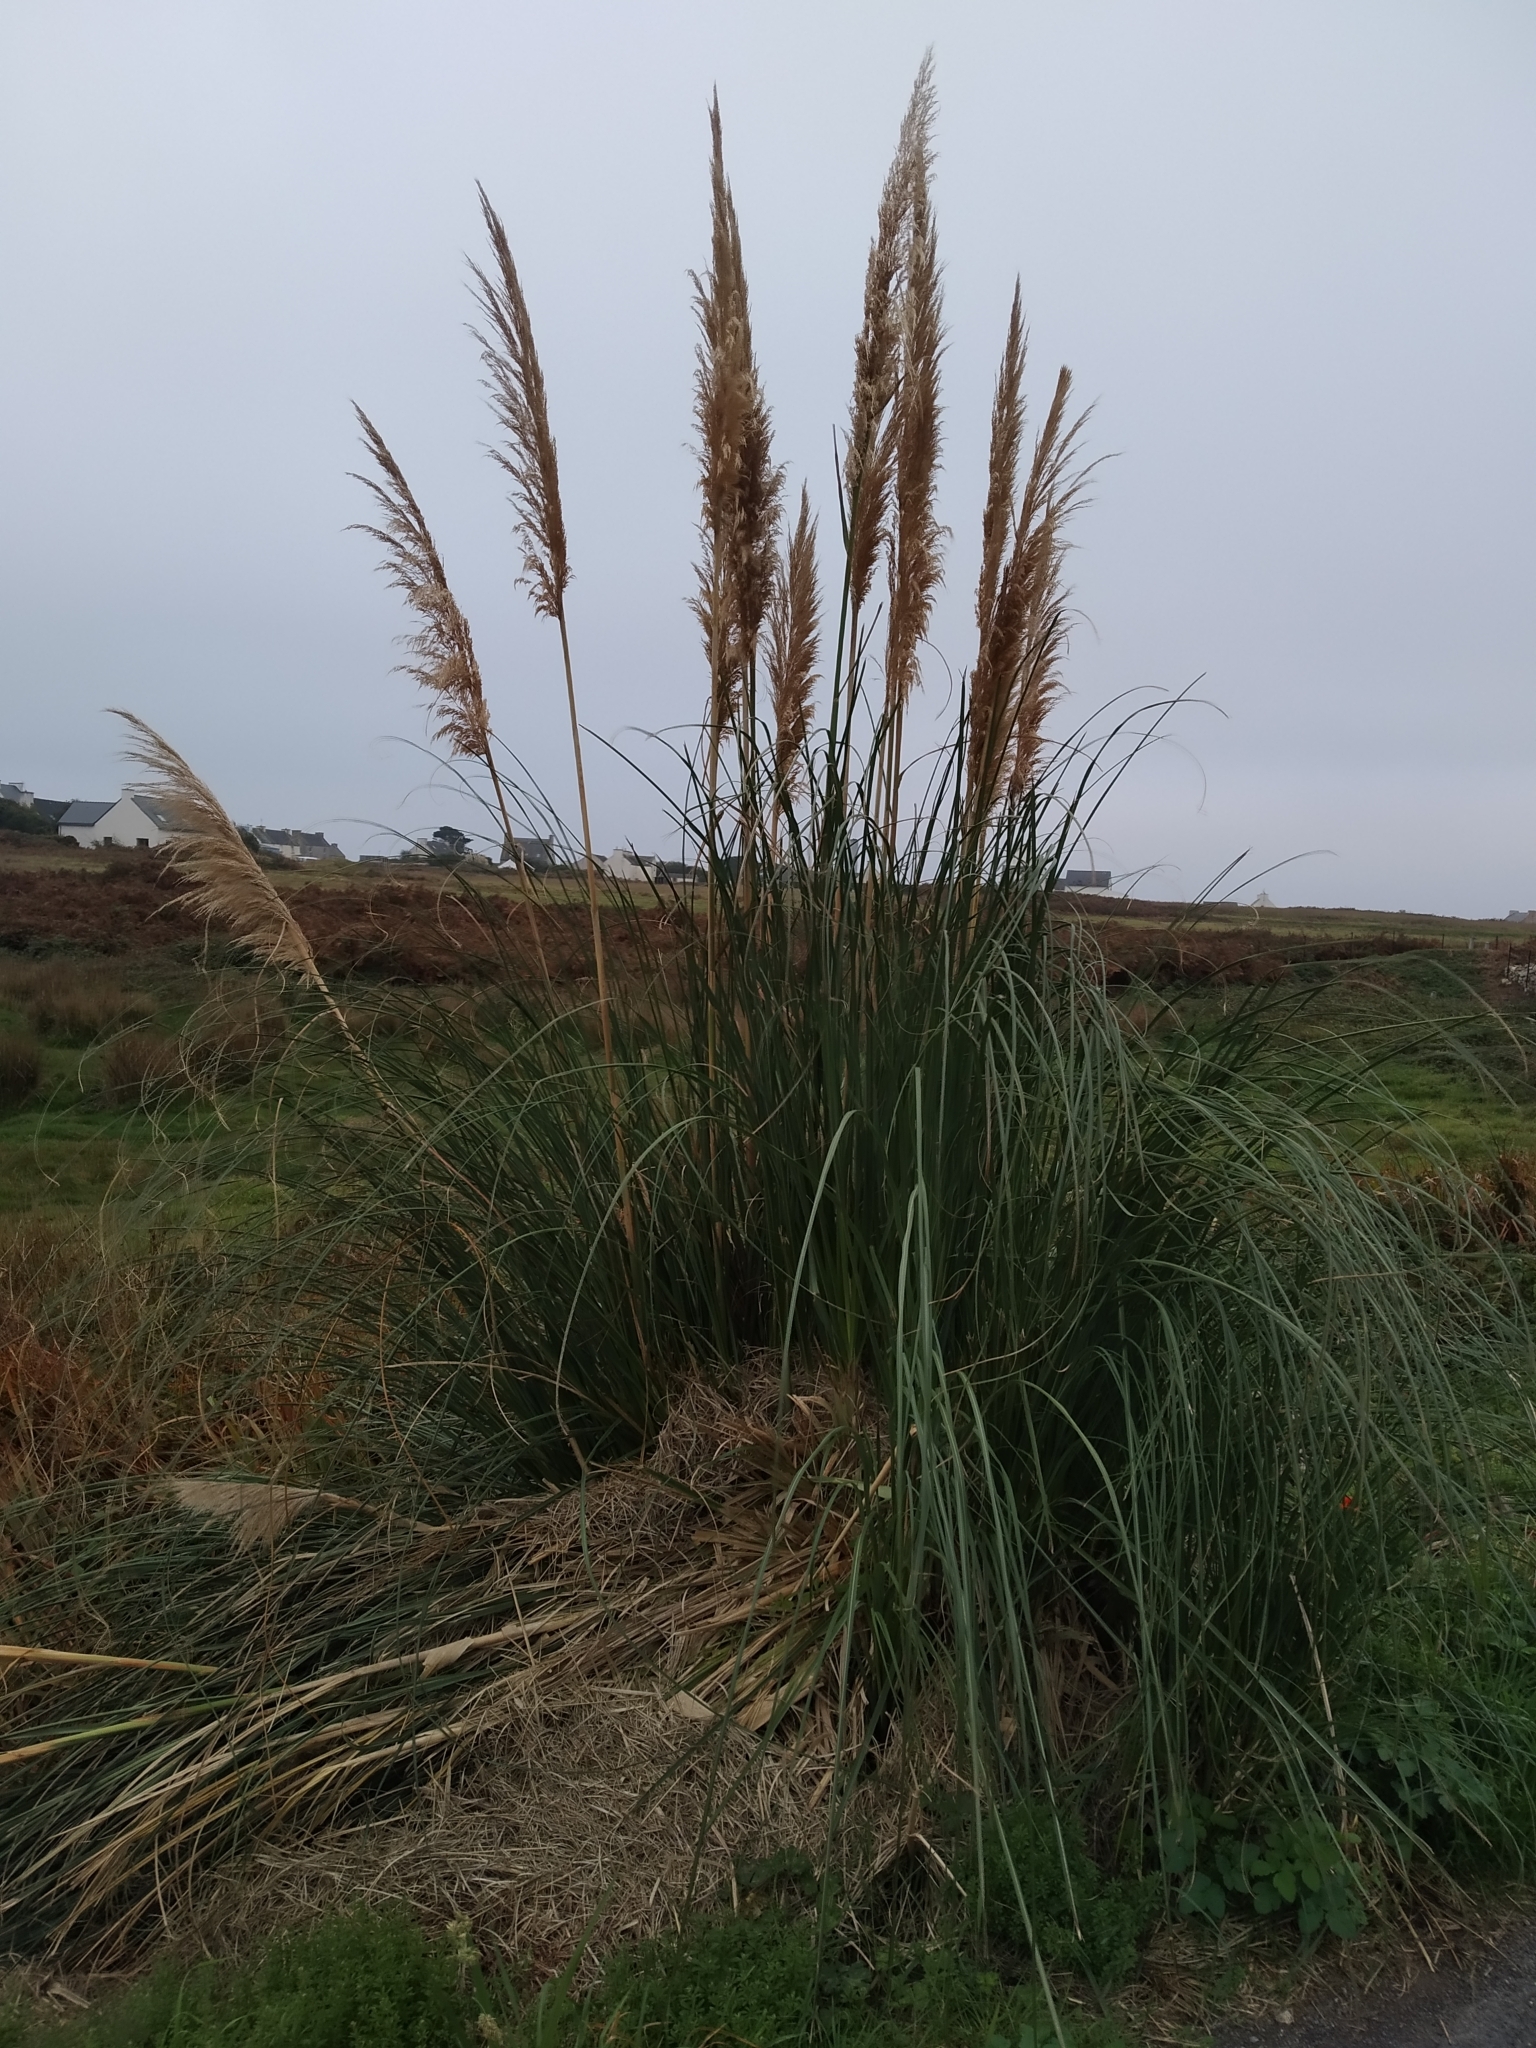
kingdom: Plantae
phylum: Tracheophyta
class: Liliopsida
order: Poales
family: Poaceae
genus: Cortaderia
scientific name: Cortaderia selloana
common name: Uruguayan pampas grass
